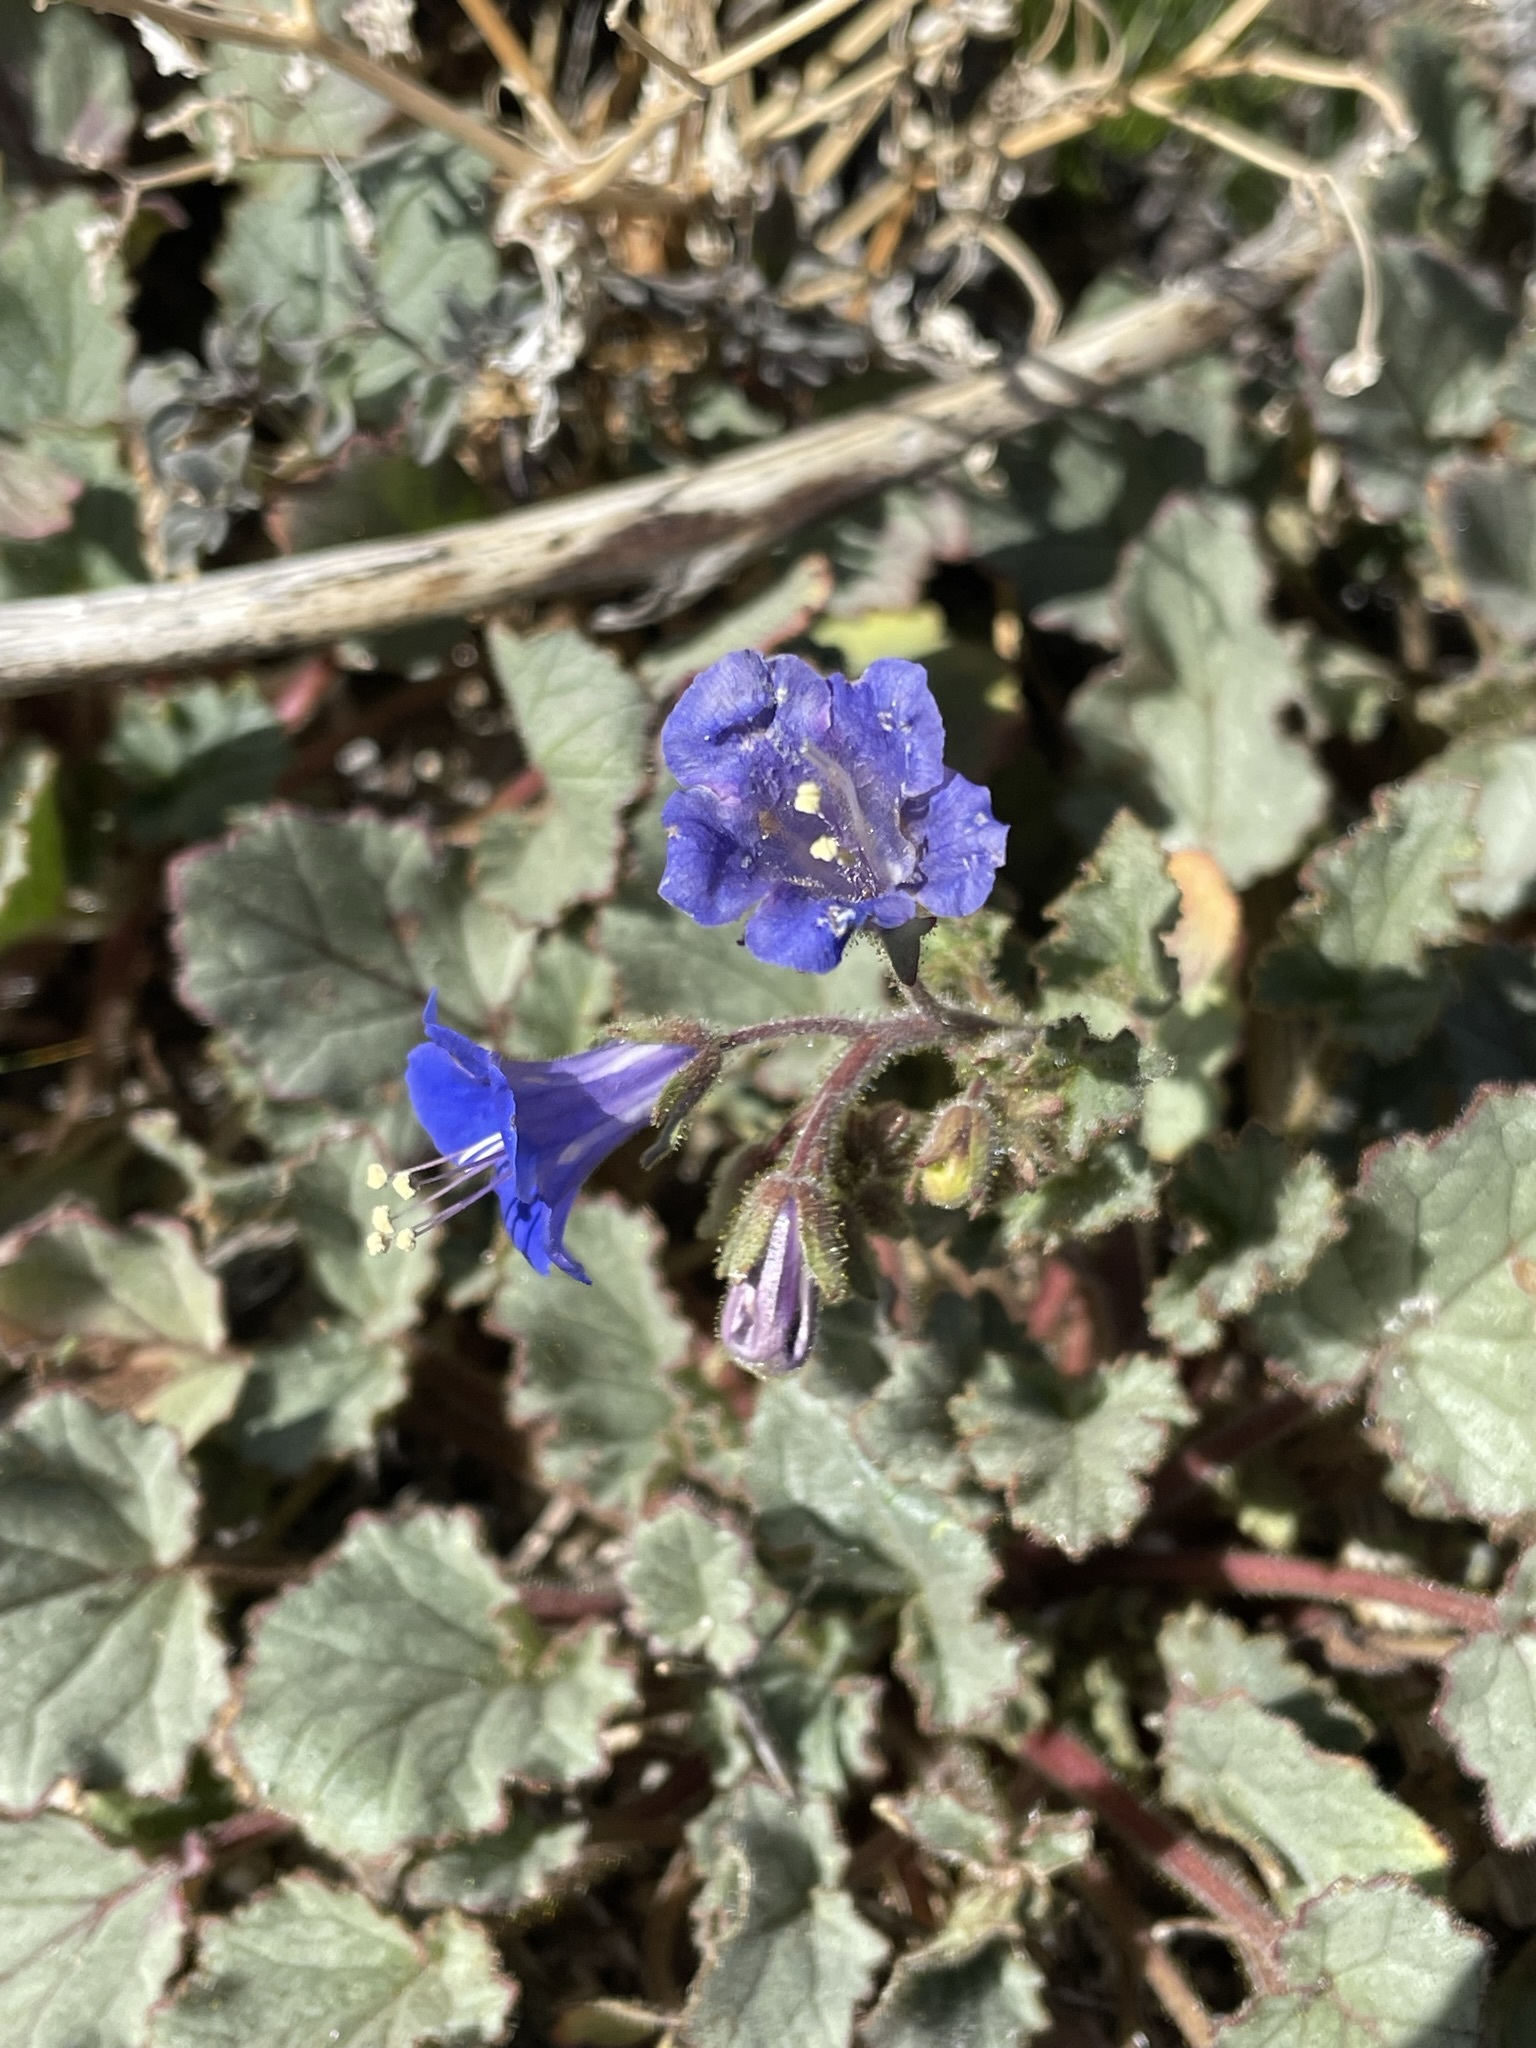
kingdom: Plantae
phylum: Tracheophyta
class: Magnoliopsida
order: Boraginales
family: Hydrophyllaceae
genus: Phacelia
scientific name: Phacelia campanularia
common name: California bluebell
